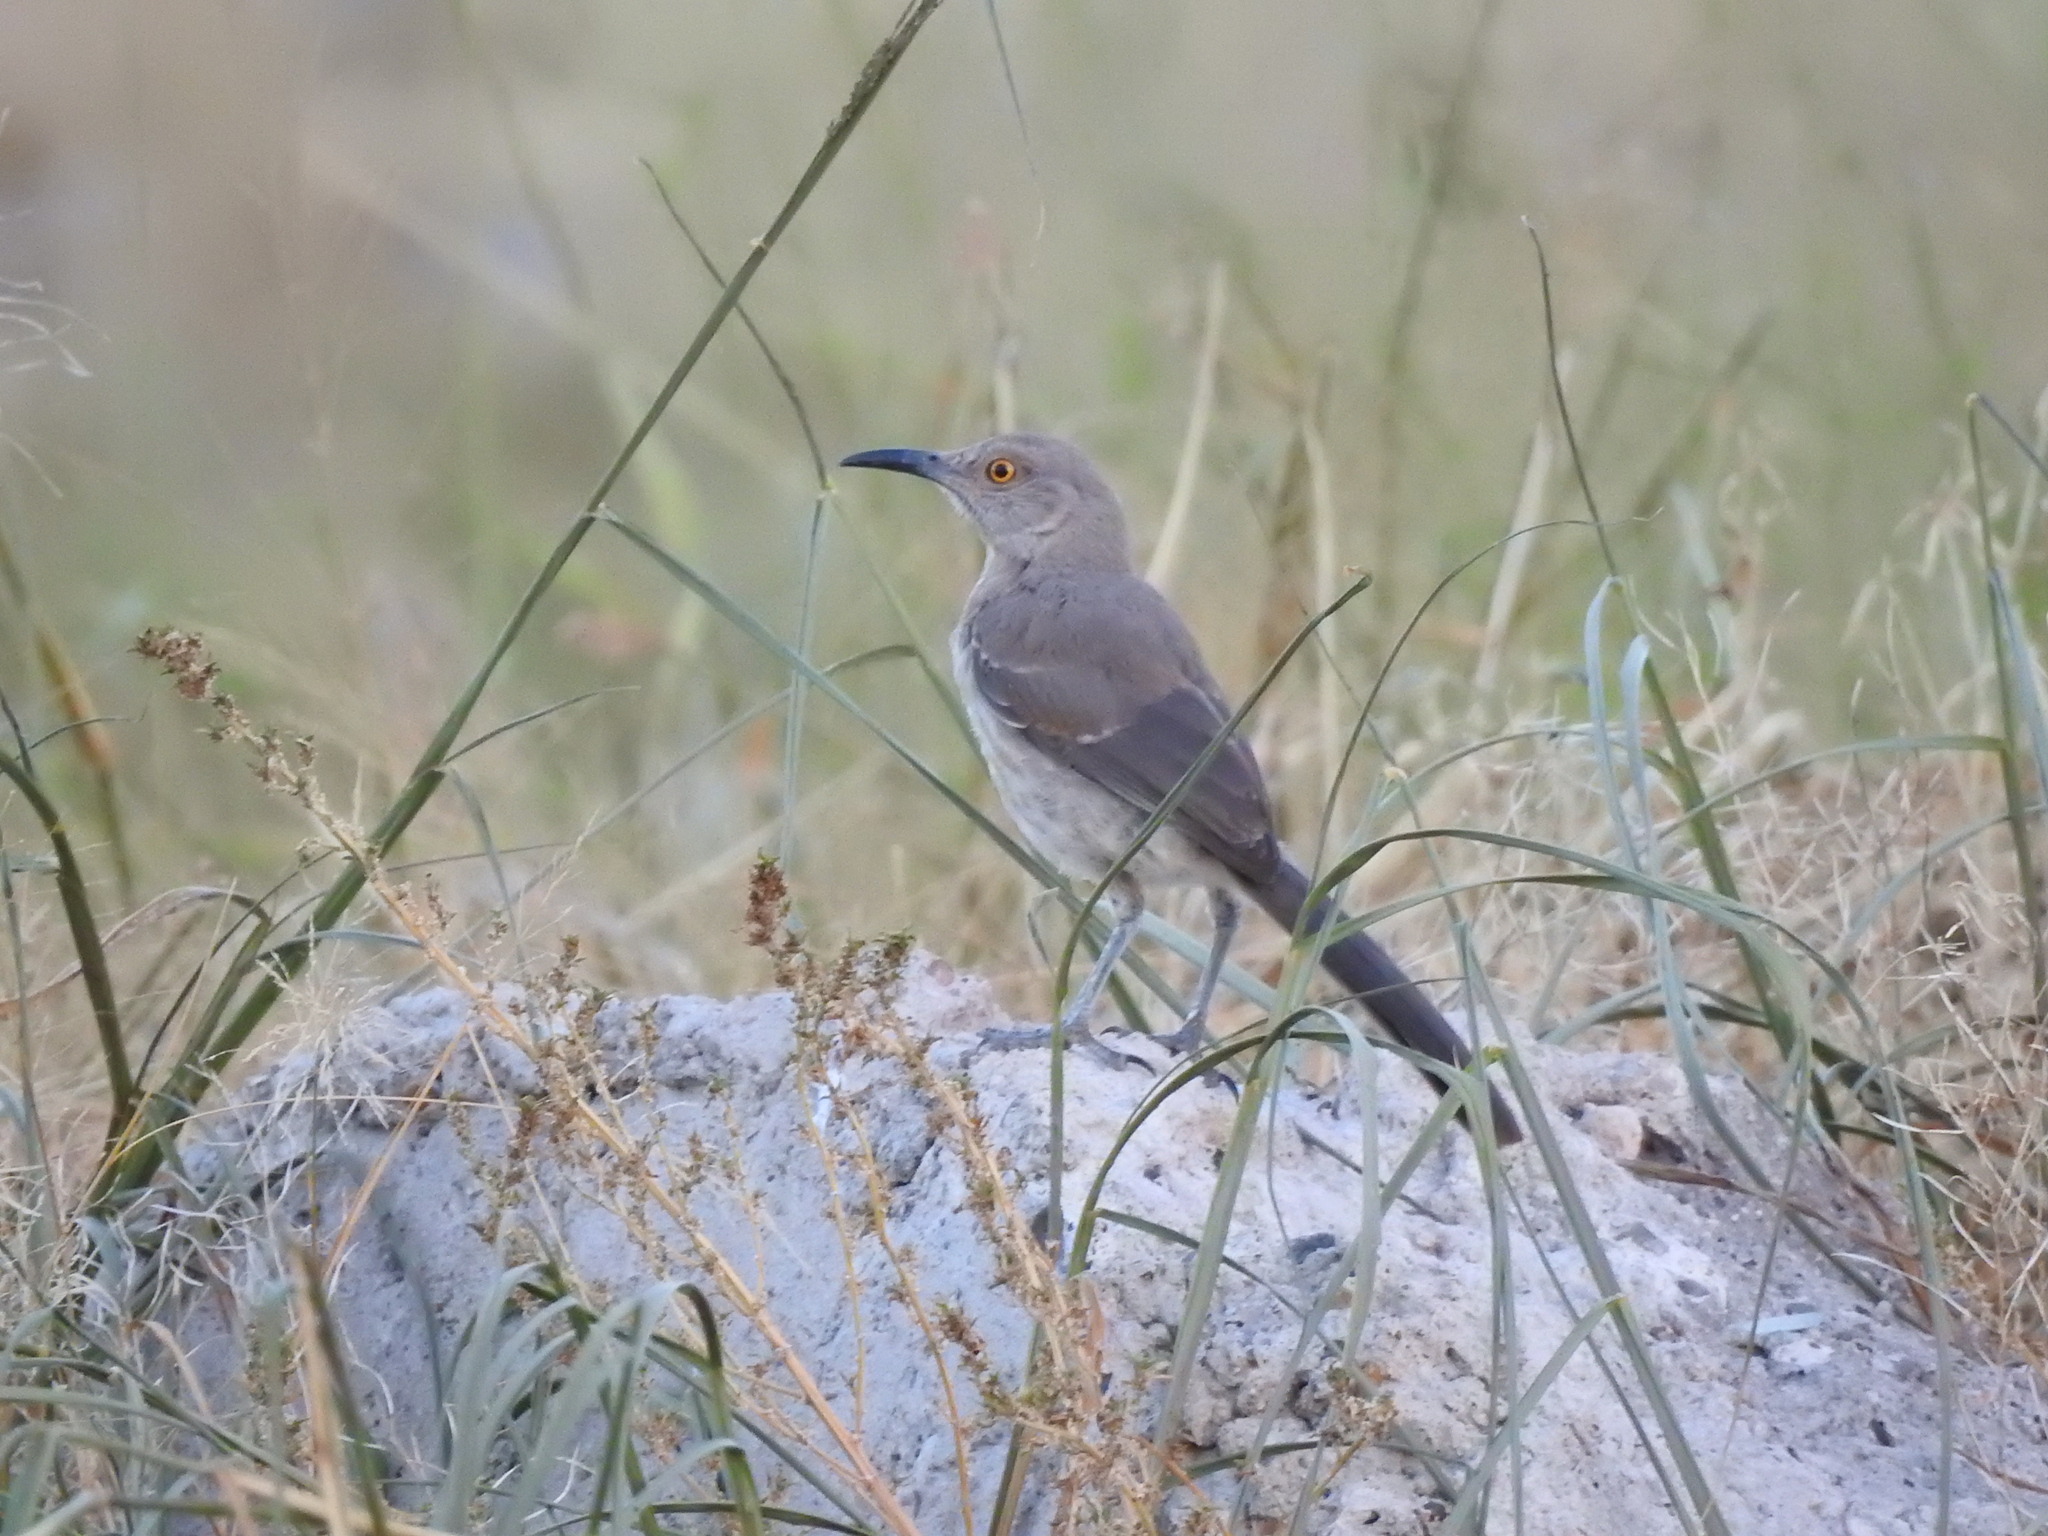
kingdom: Animalia
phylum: Chordata
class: Aves
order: Passeriformes
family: Mimidae
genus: Toxostoma
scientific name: Toxostoma curvirostre
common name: Curve-billed thrasher
